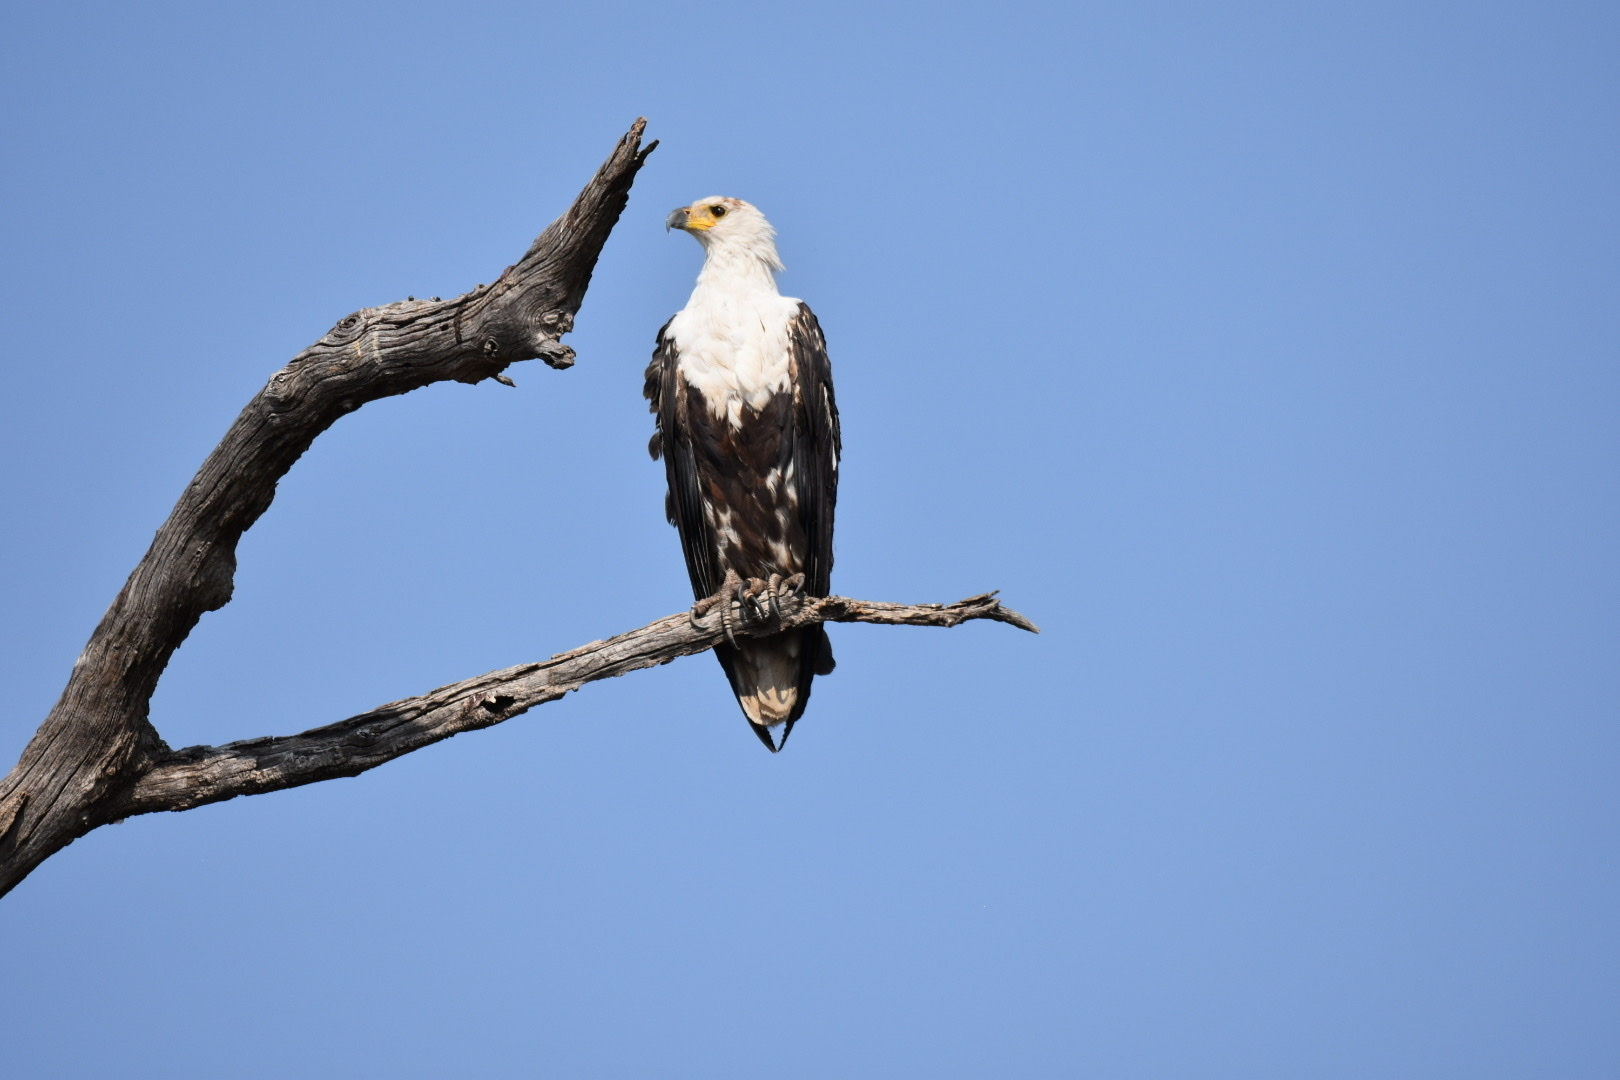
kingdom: Animalia
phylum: Chordata
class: Aves
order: Accipitriformes
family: Accipitridae
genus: Haliaeetus
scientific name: Haliaeetus vocifer
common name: African fish eagle
